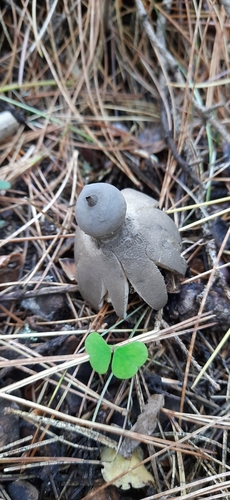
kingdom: Fungi
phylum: Basidiomycota
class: Agaricomycetes
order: Geastrales
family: Geastraceae
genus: Geastrum
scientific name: Geastrum pectinatum
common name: Beaked earthstar
